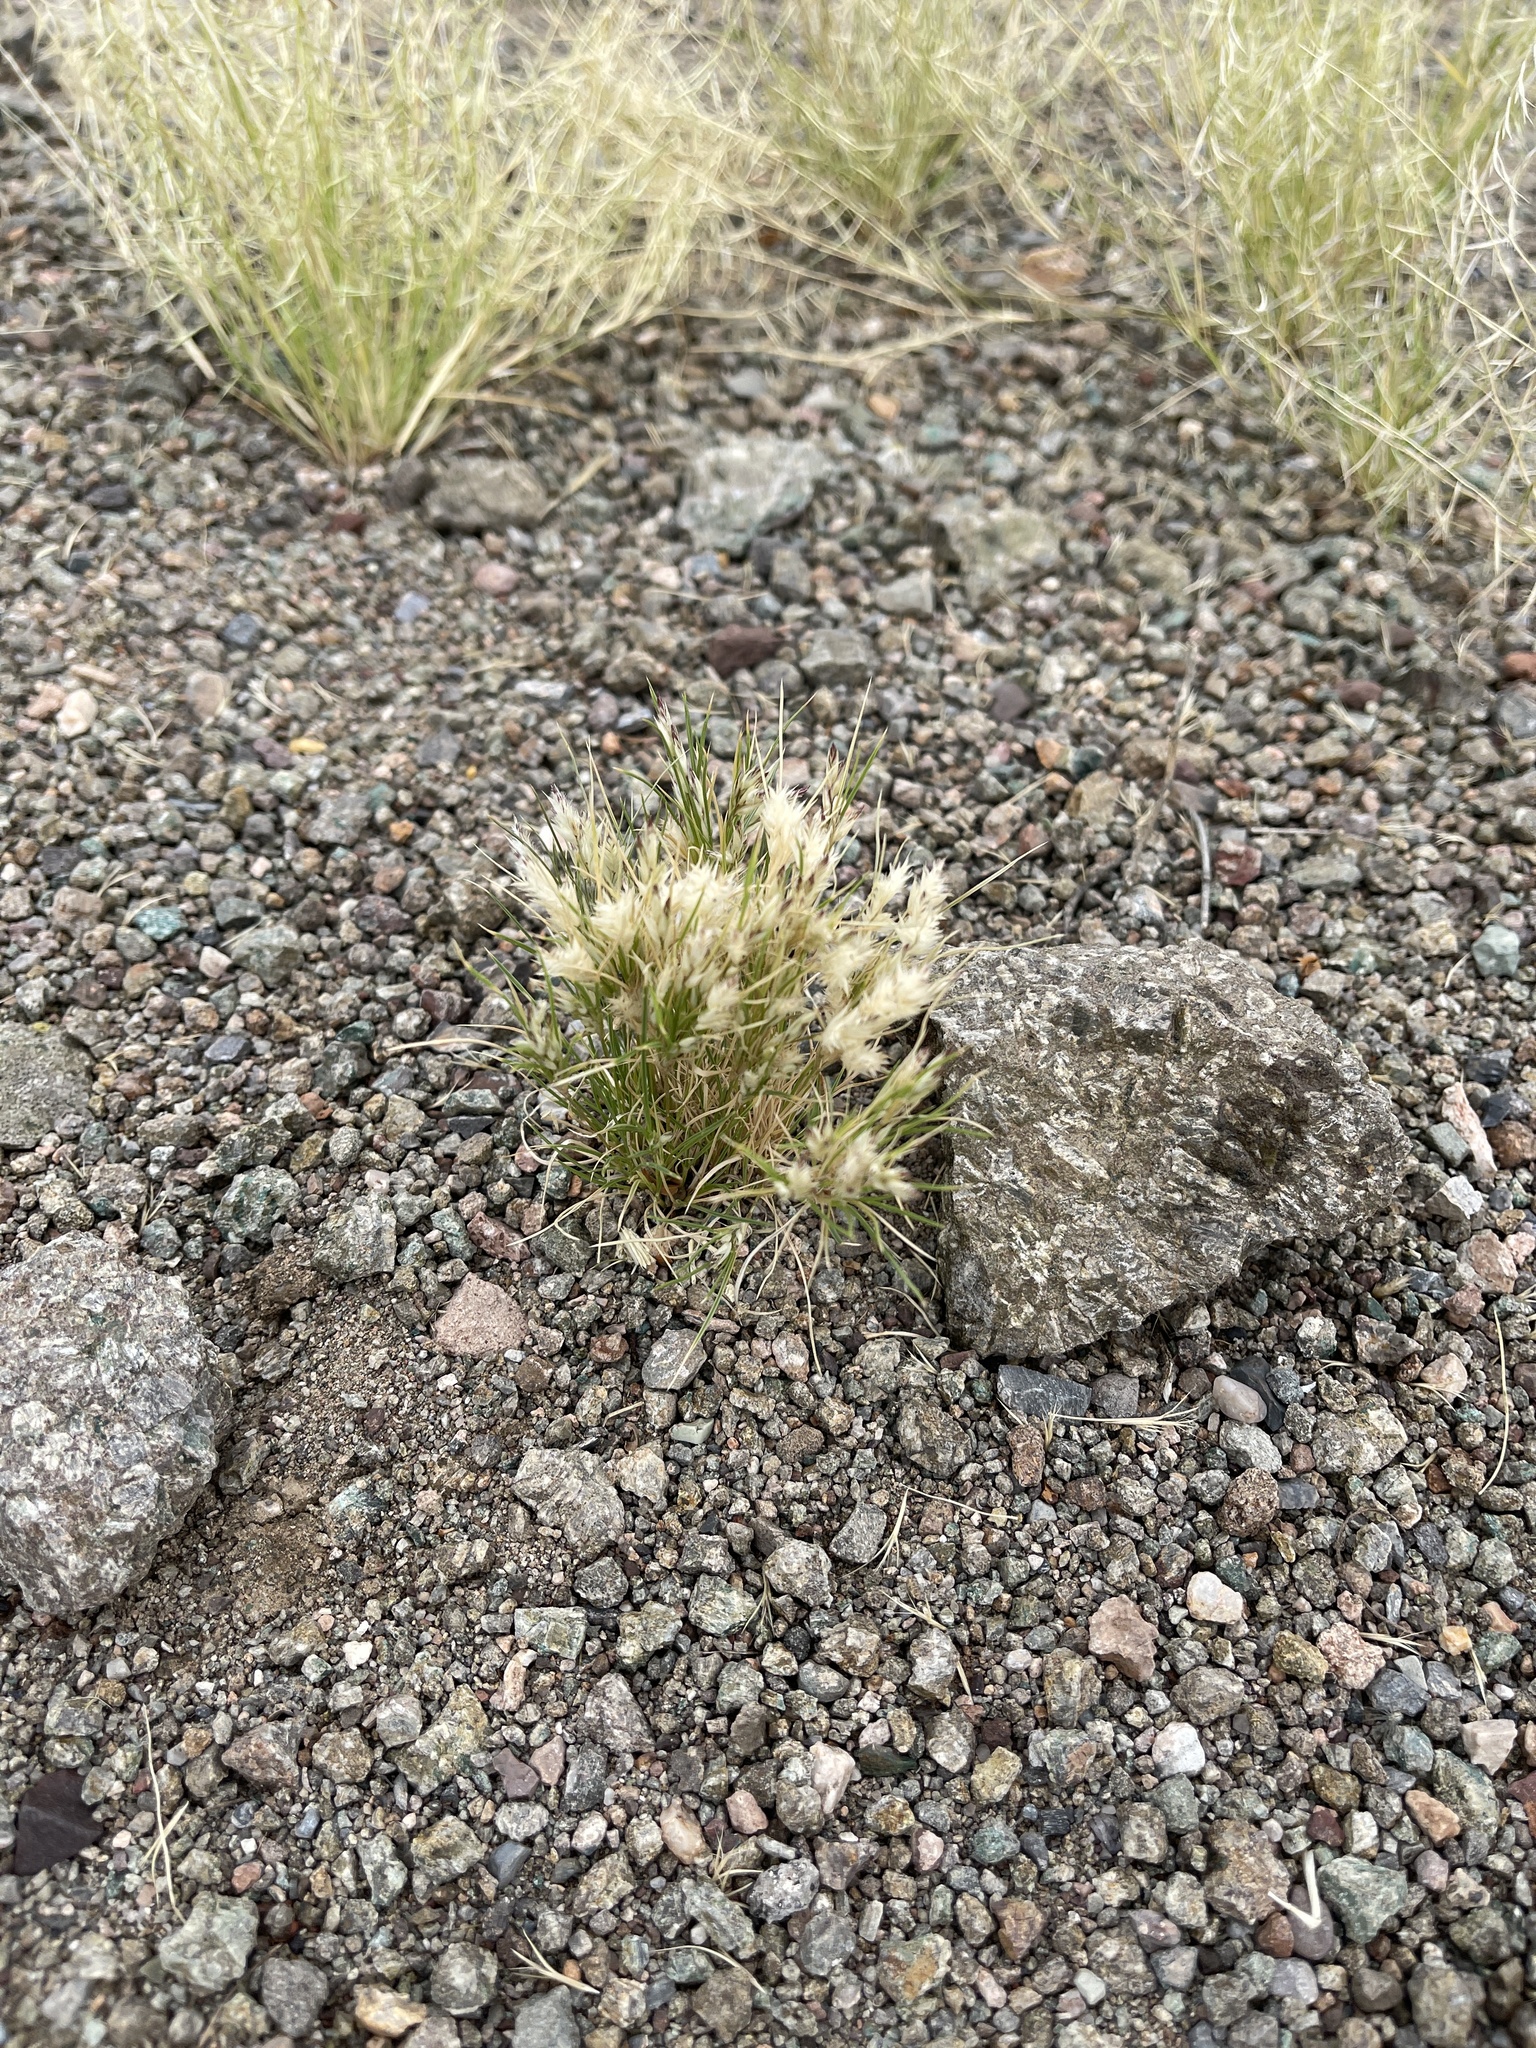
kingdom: Plantae
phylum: Tracheophyta
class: Liliopsida
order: Poales
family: Poaceae
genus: Dasyochloa
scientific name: Dasyochloa pulchella
